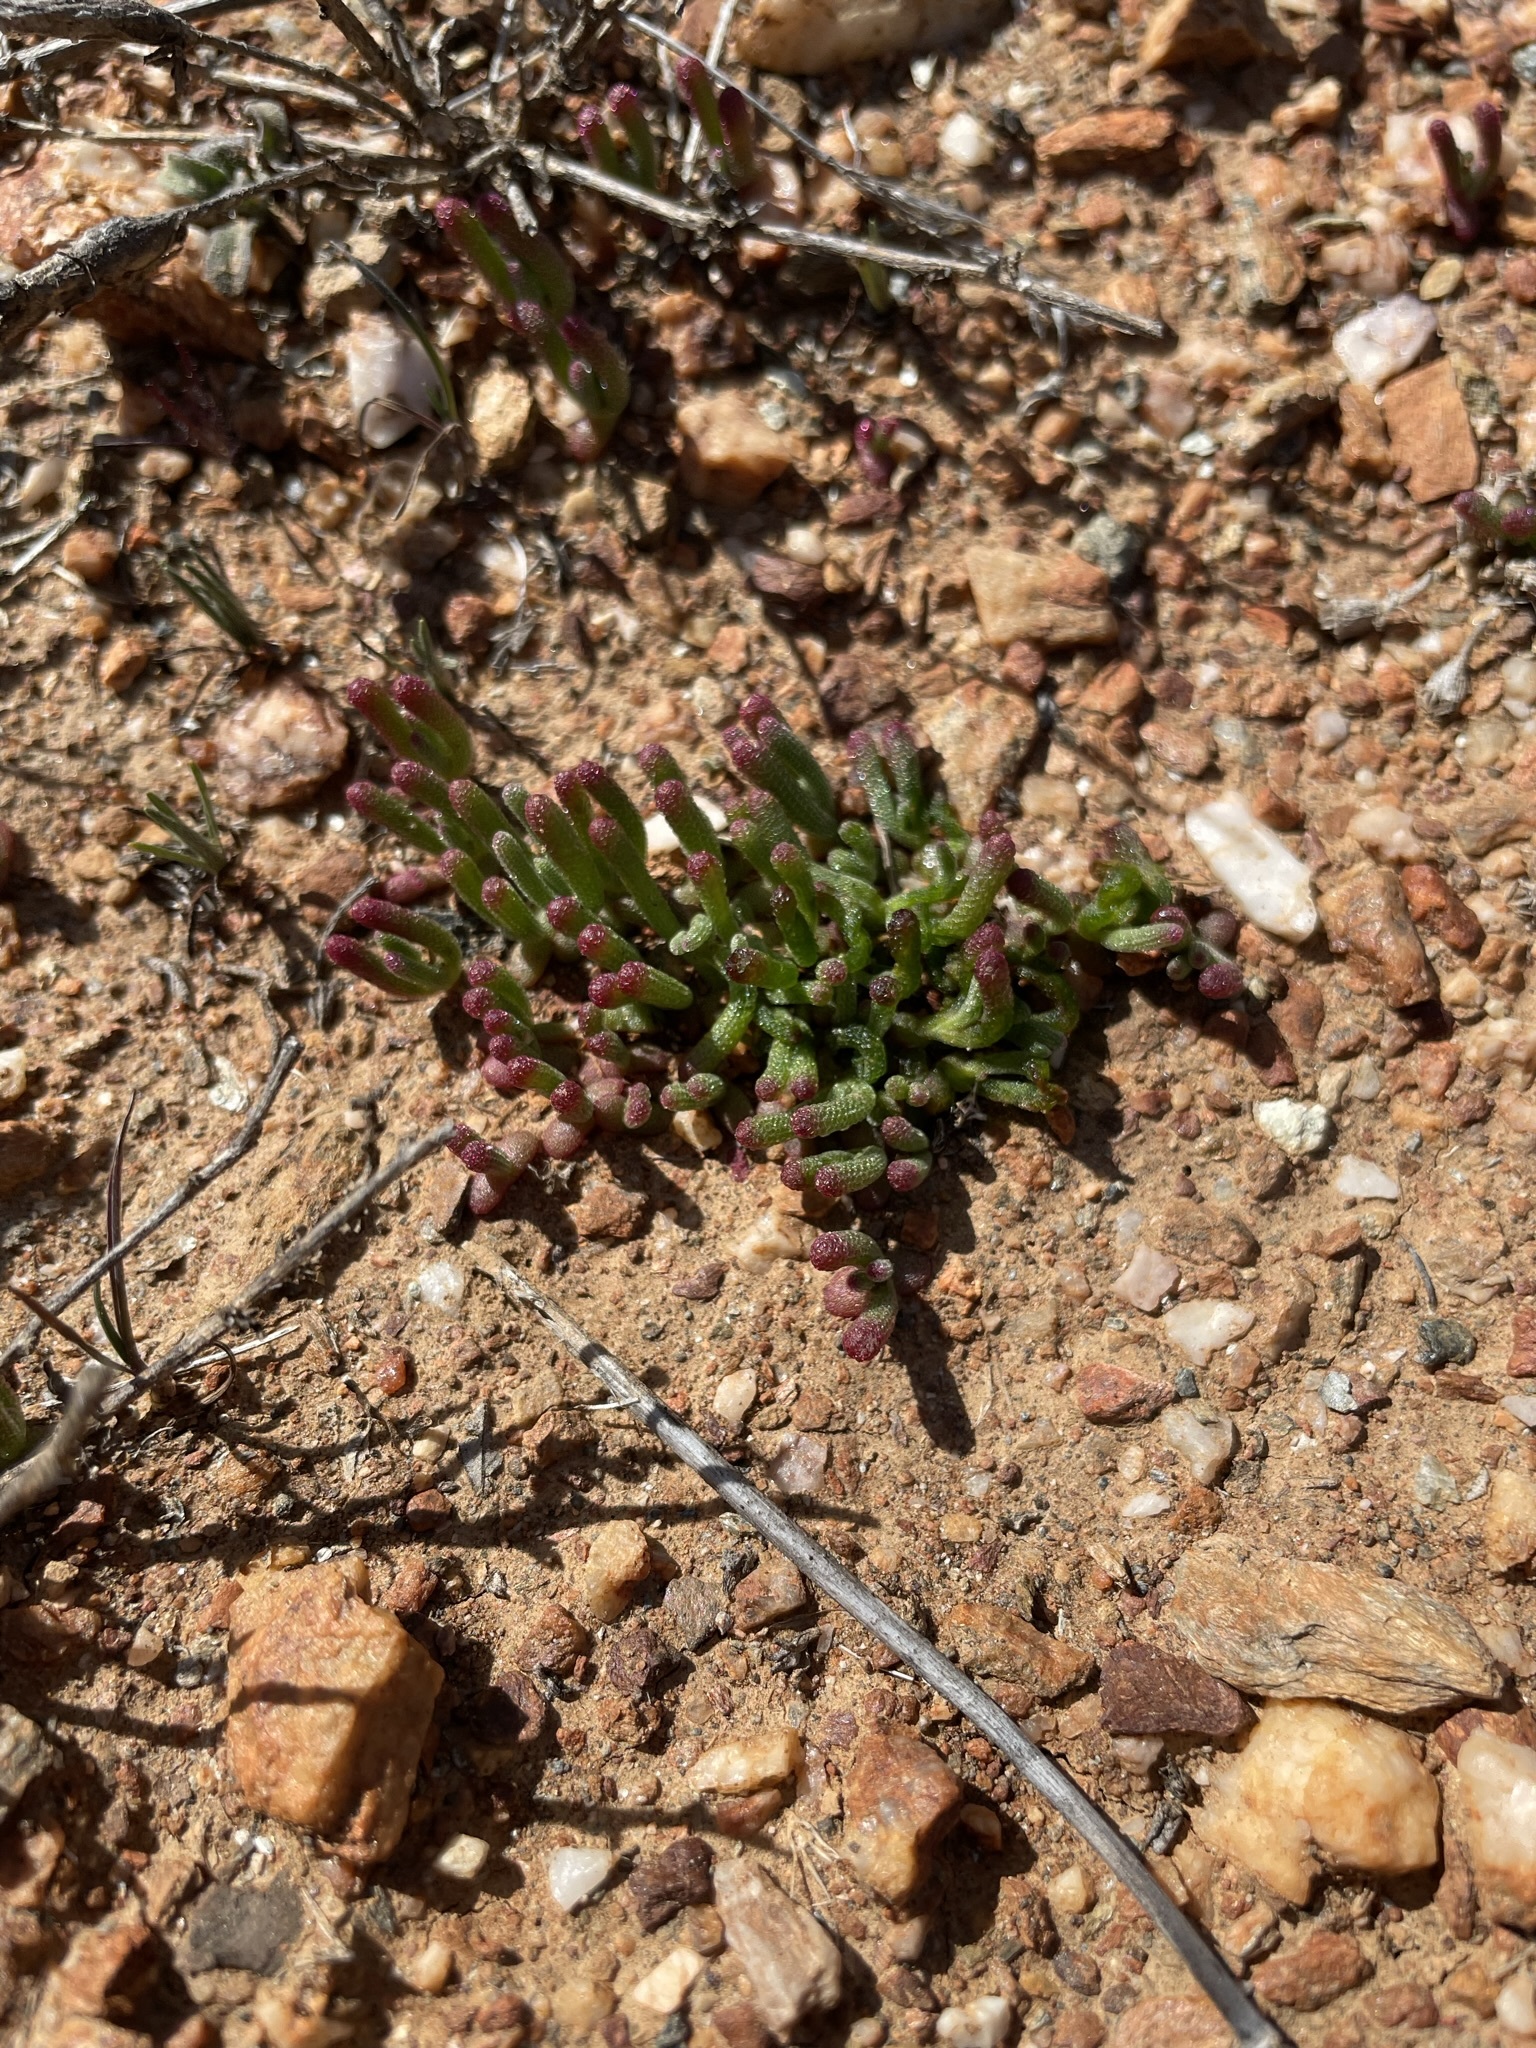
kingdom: Plantae
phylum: Tracheophyta
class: Magnoliopsida
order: Caryophyllales
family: Aizoaceae
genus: Mesembryanthemum
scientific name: Mesembryanthemum nodiflorum
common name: Slenderleaf iceplant
